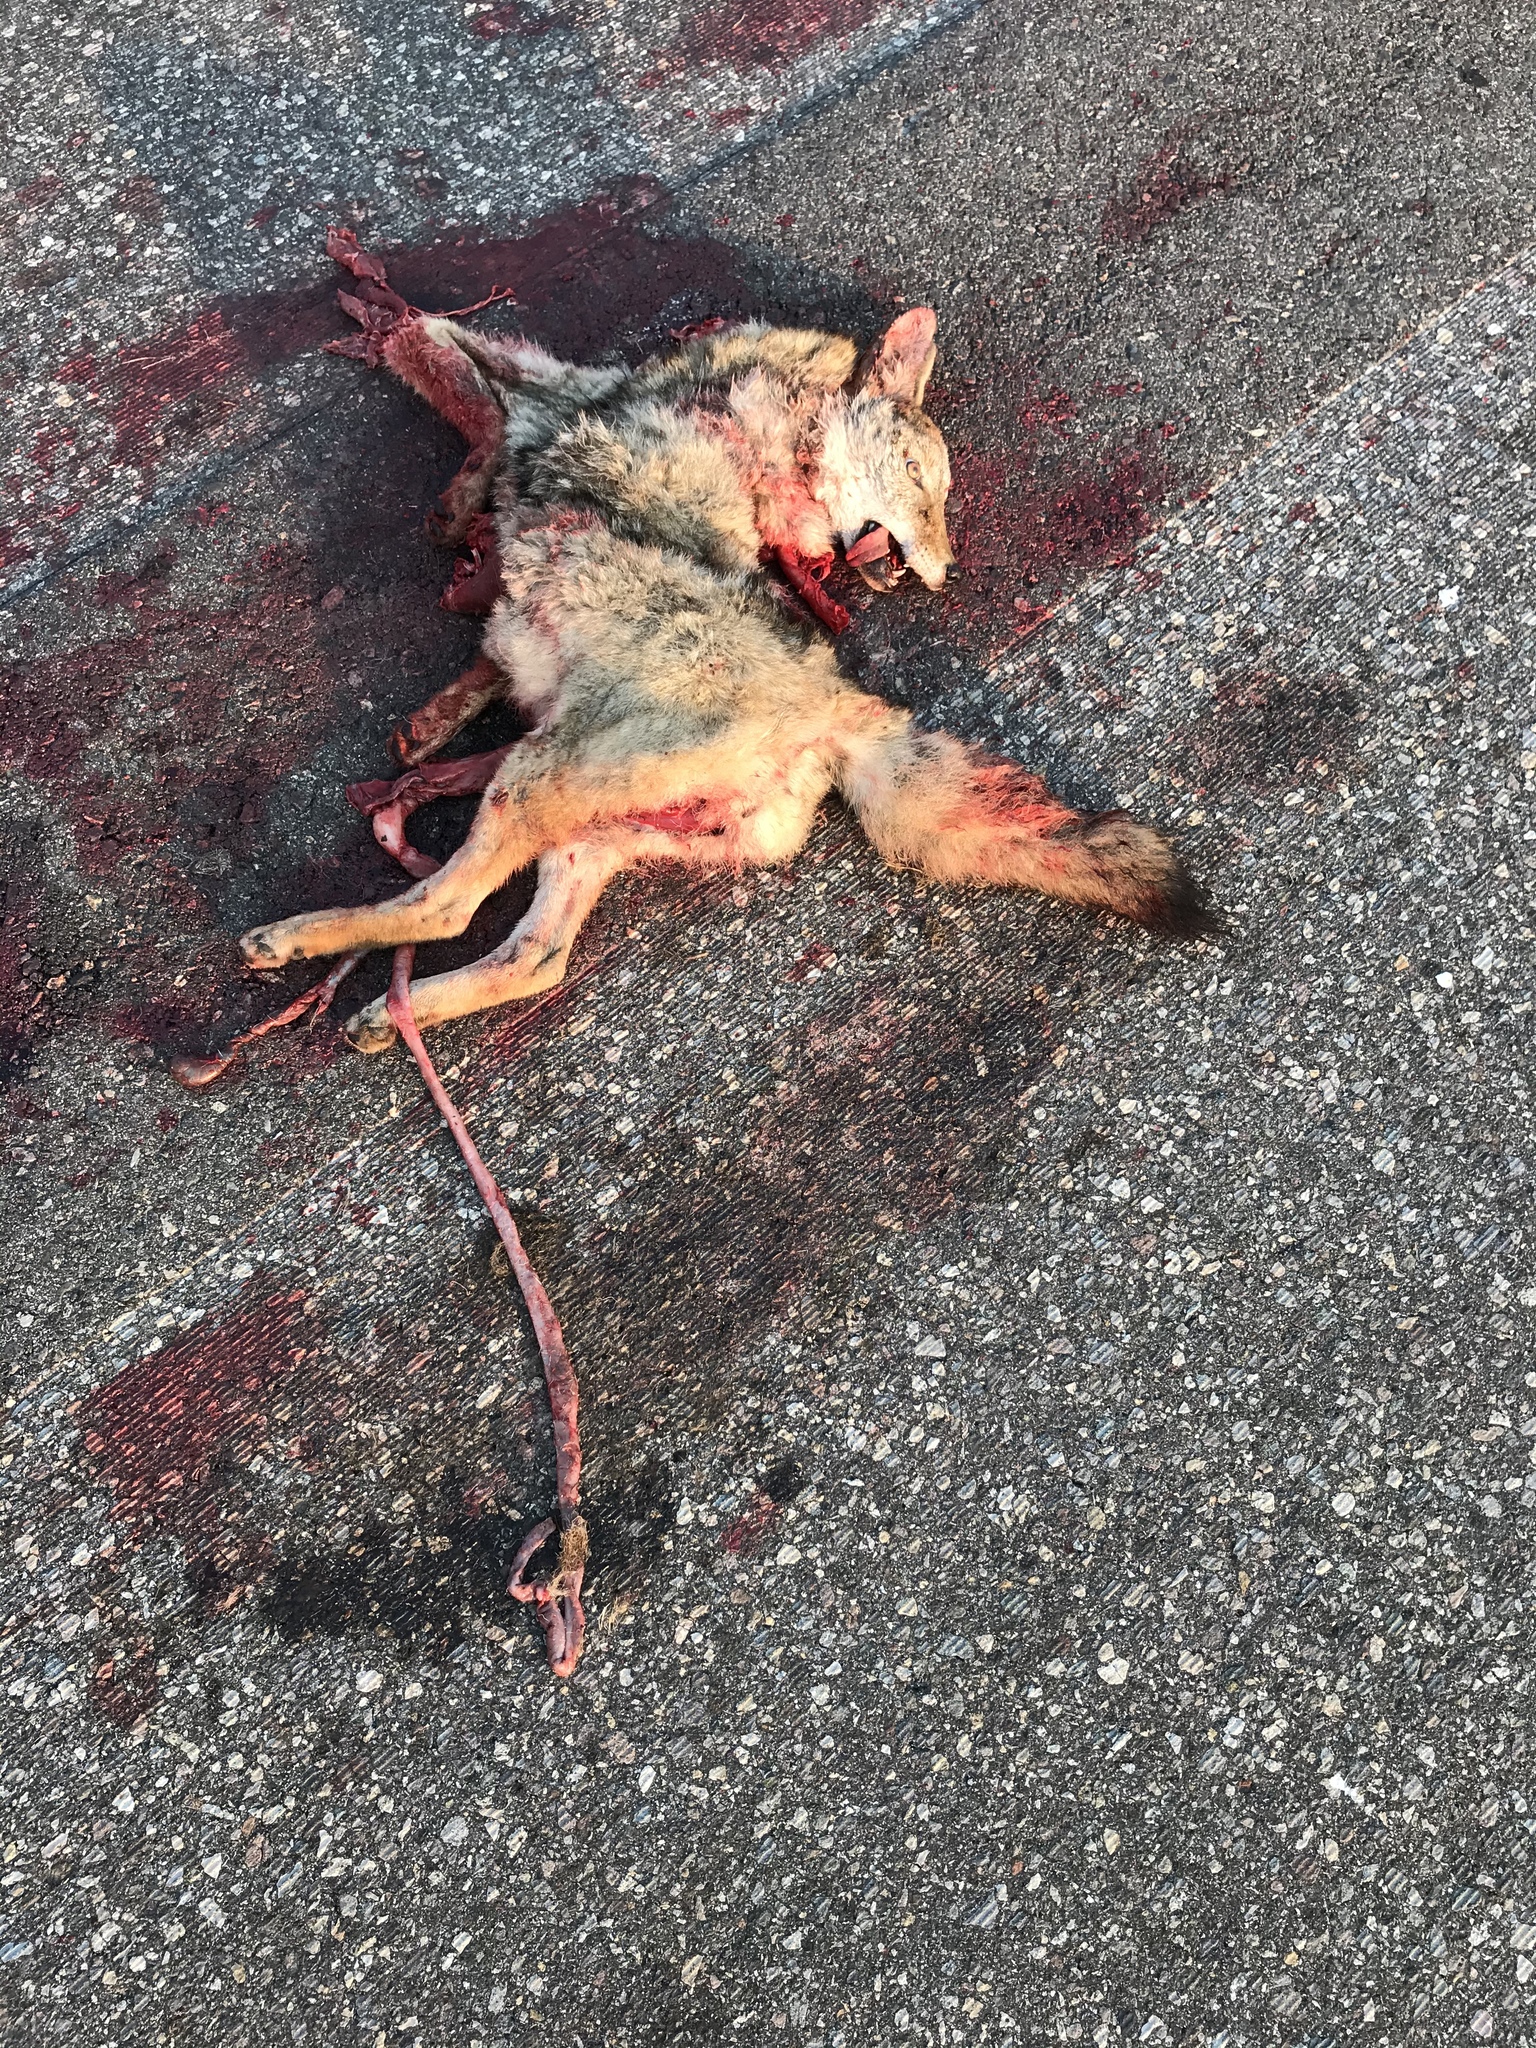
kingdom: Animalia
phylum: Chordata
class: Mammalia
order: Carnivora
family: Canidae
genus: Canis
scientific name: Canis latrans
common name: Coyote
